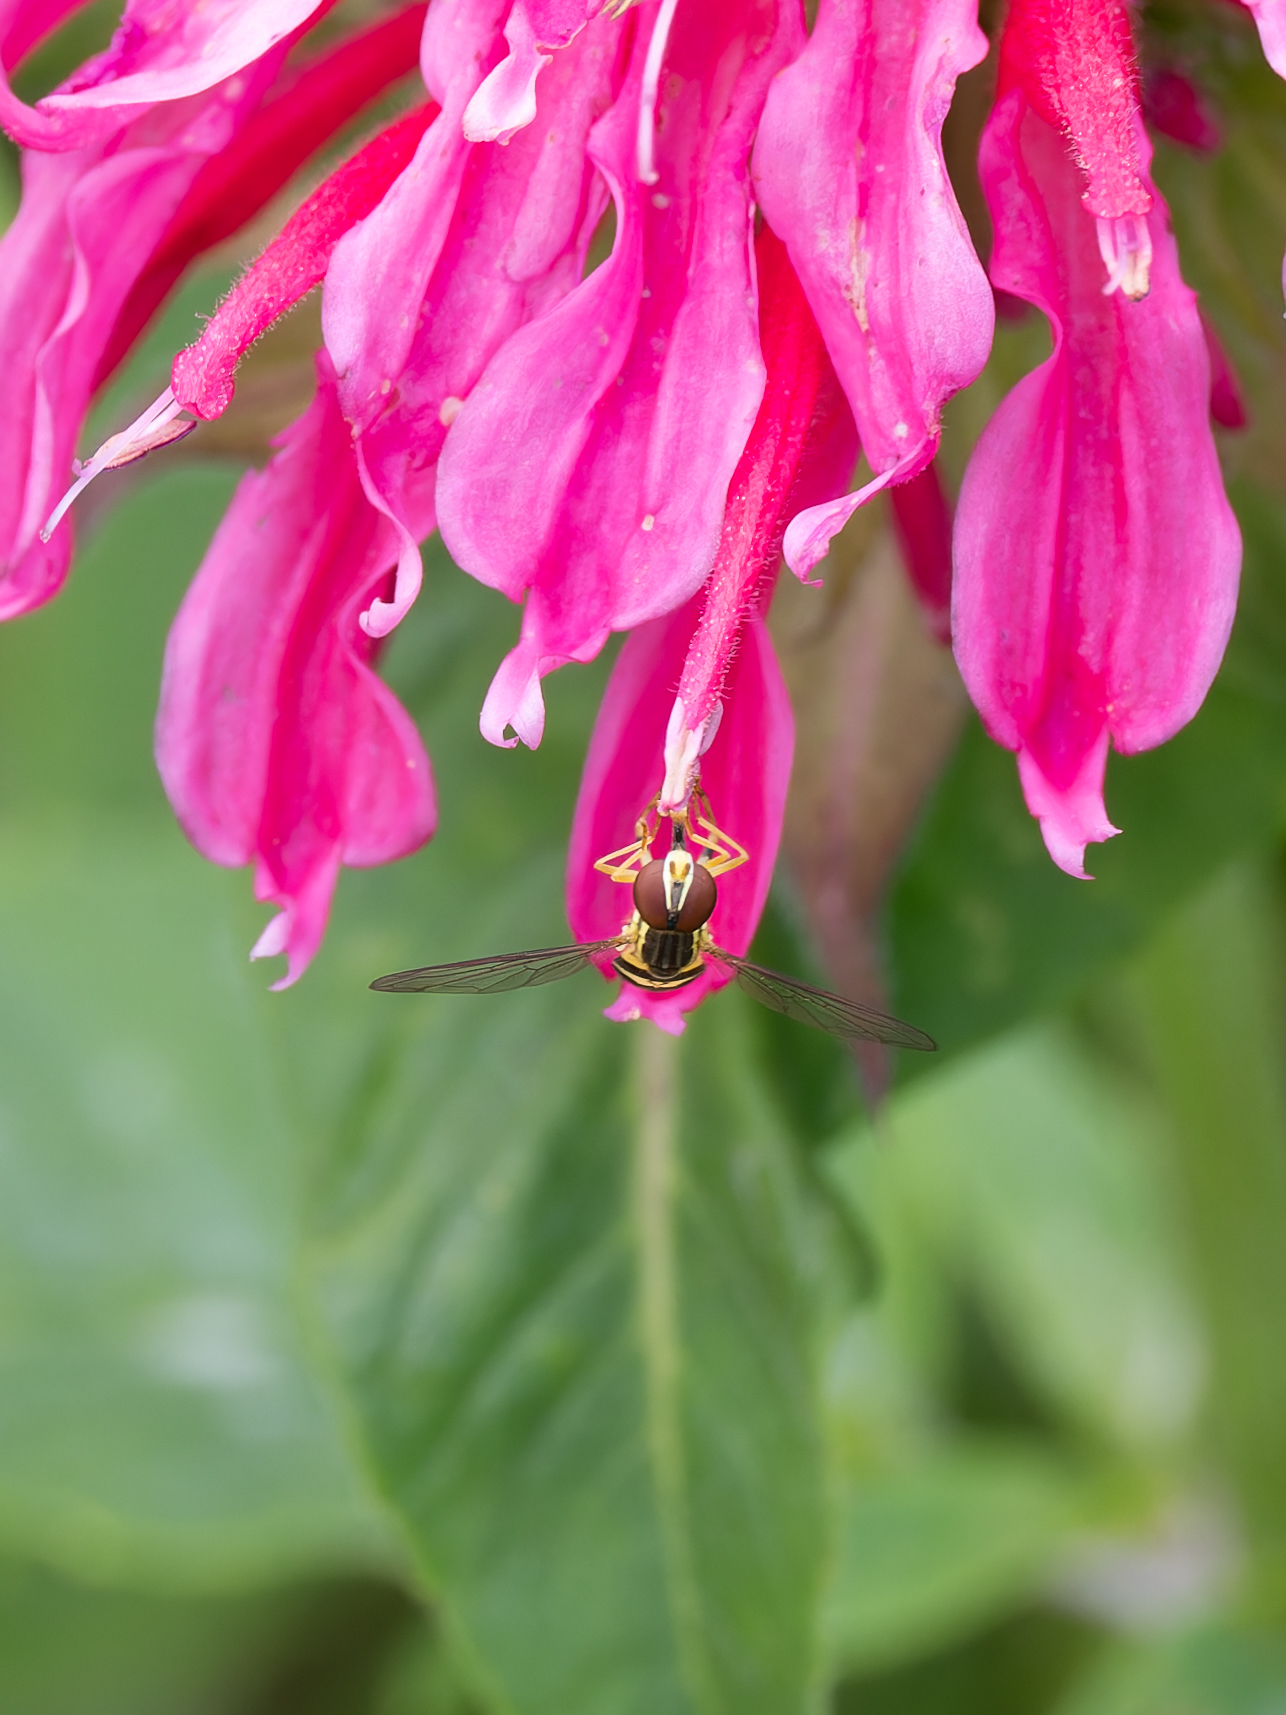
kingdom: Animalia
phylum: Arthropoda
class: Insecta
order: Diptera
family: Syrphidae
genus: Toxomerus
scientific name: Toxomerus geminatus
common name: Eastern calligrapher
